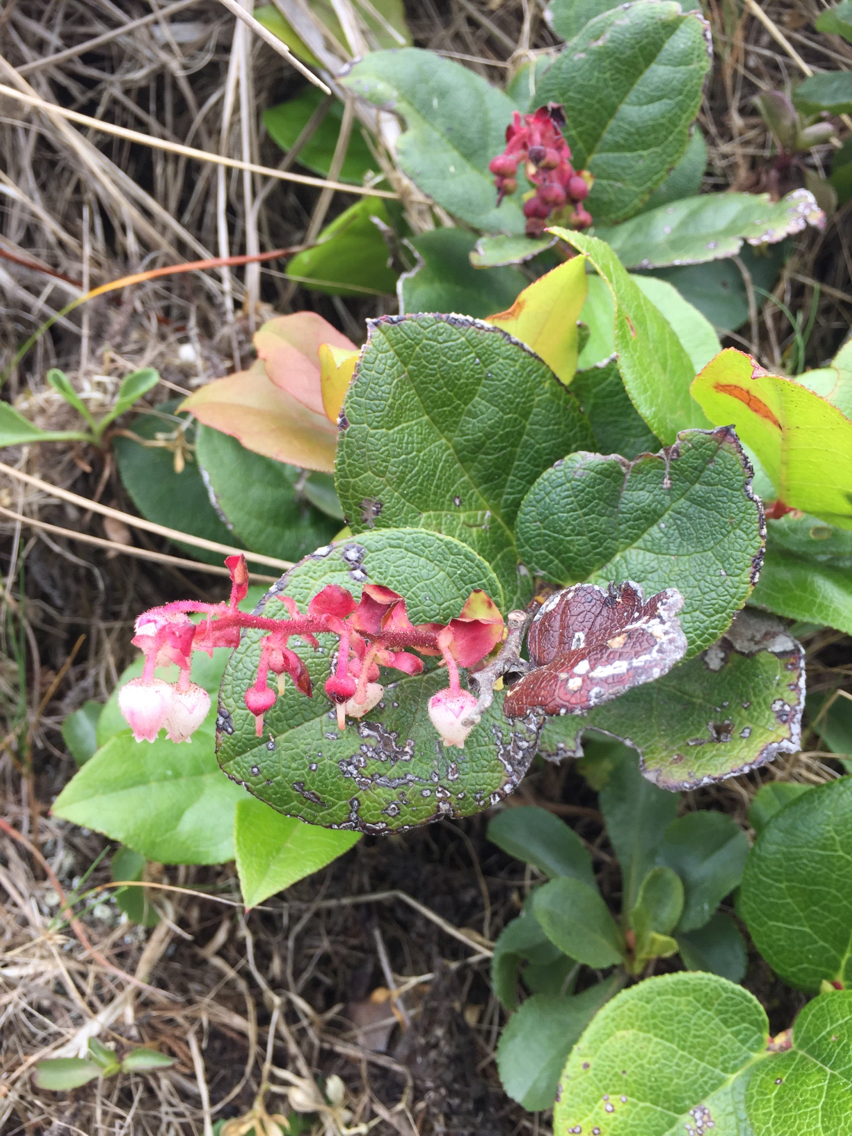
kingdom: Plantae
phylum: Tracheophyta
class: Magnoliopsida
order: Ericales
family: Ericaceae
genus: Gaultheria
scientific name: Gaultheria shallon
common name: Shallon
